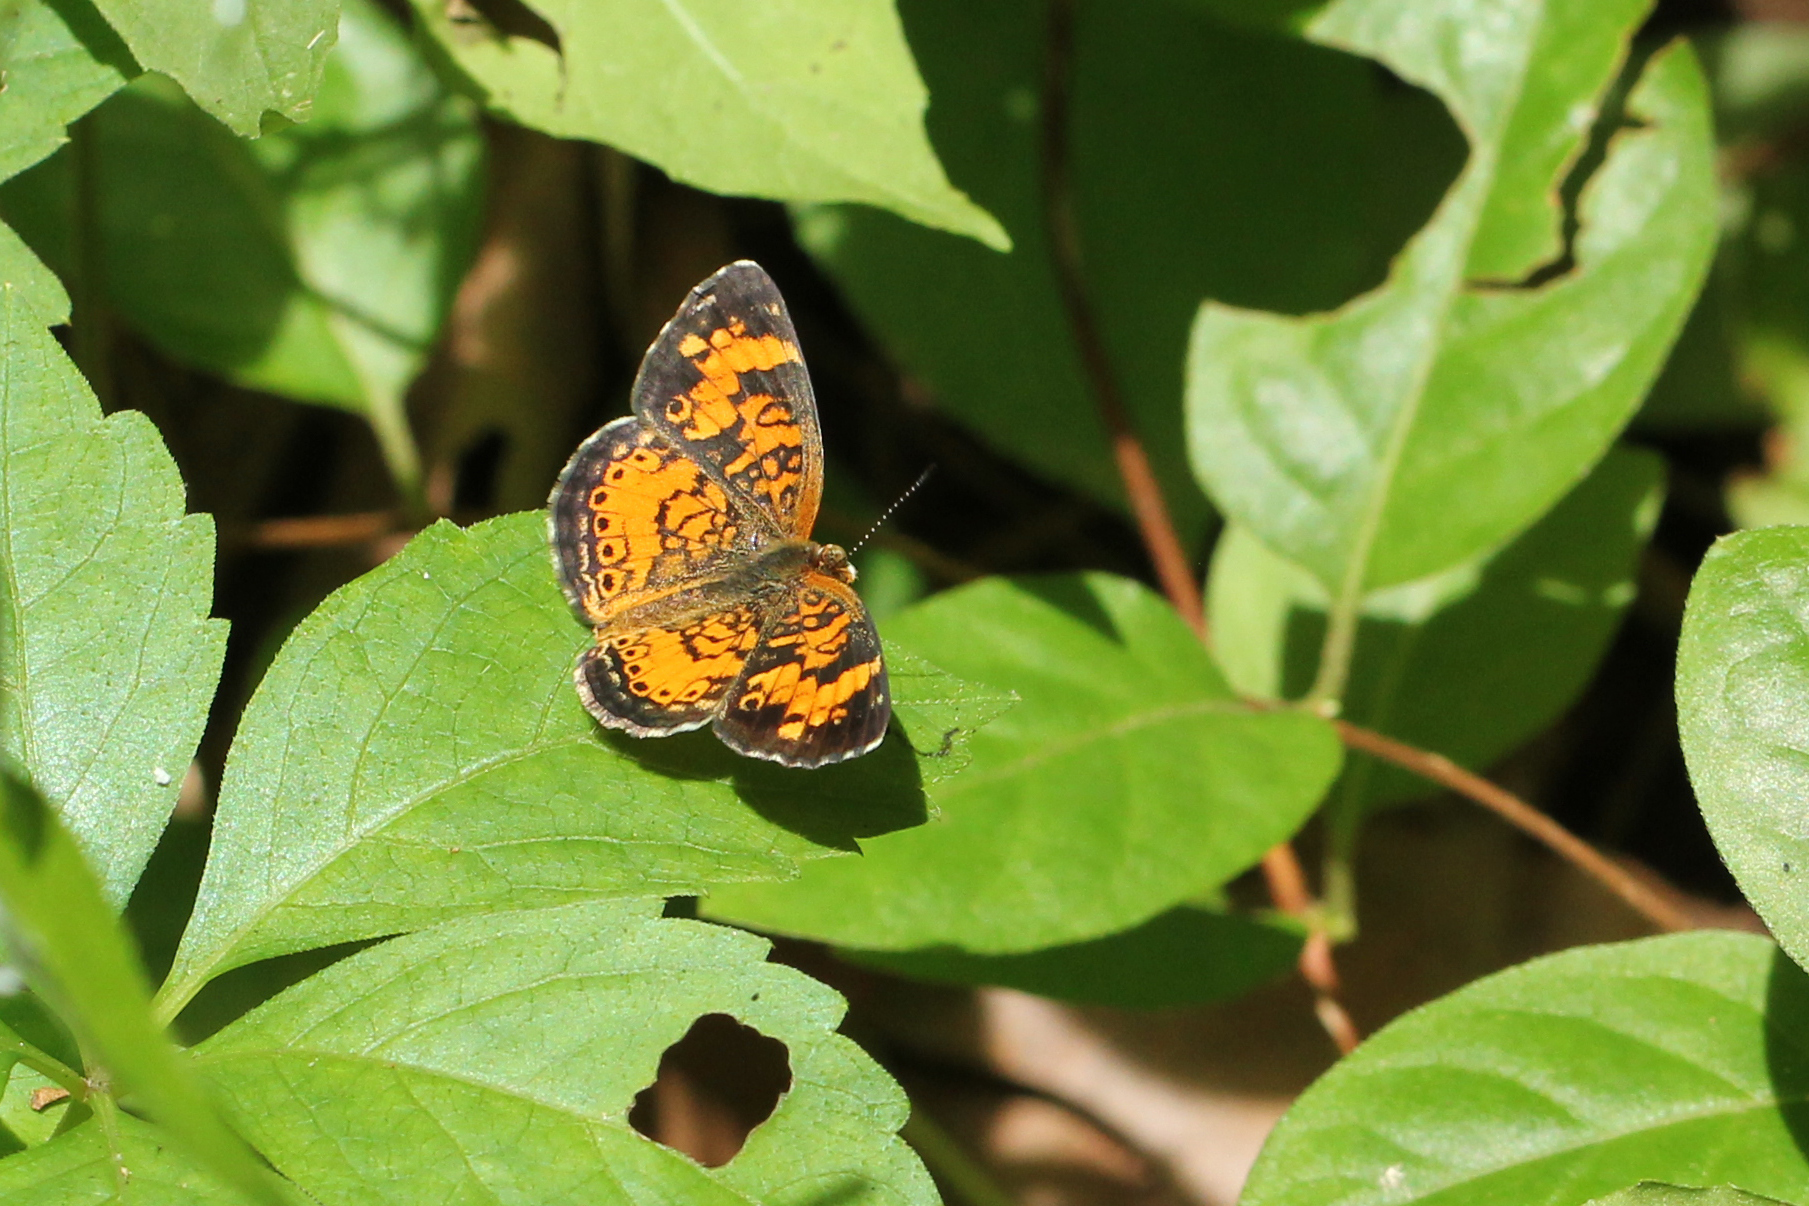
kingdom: Animalia
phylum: Arthropoda
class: Insecta
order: Lepidoptera
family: Nymphalidae
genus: Phyciodes
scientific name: Phyciodes tharos
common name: Pearl crescent
